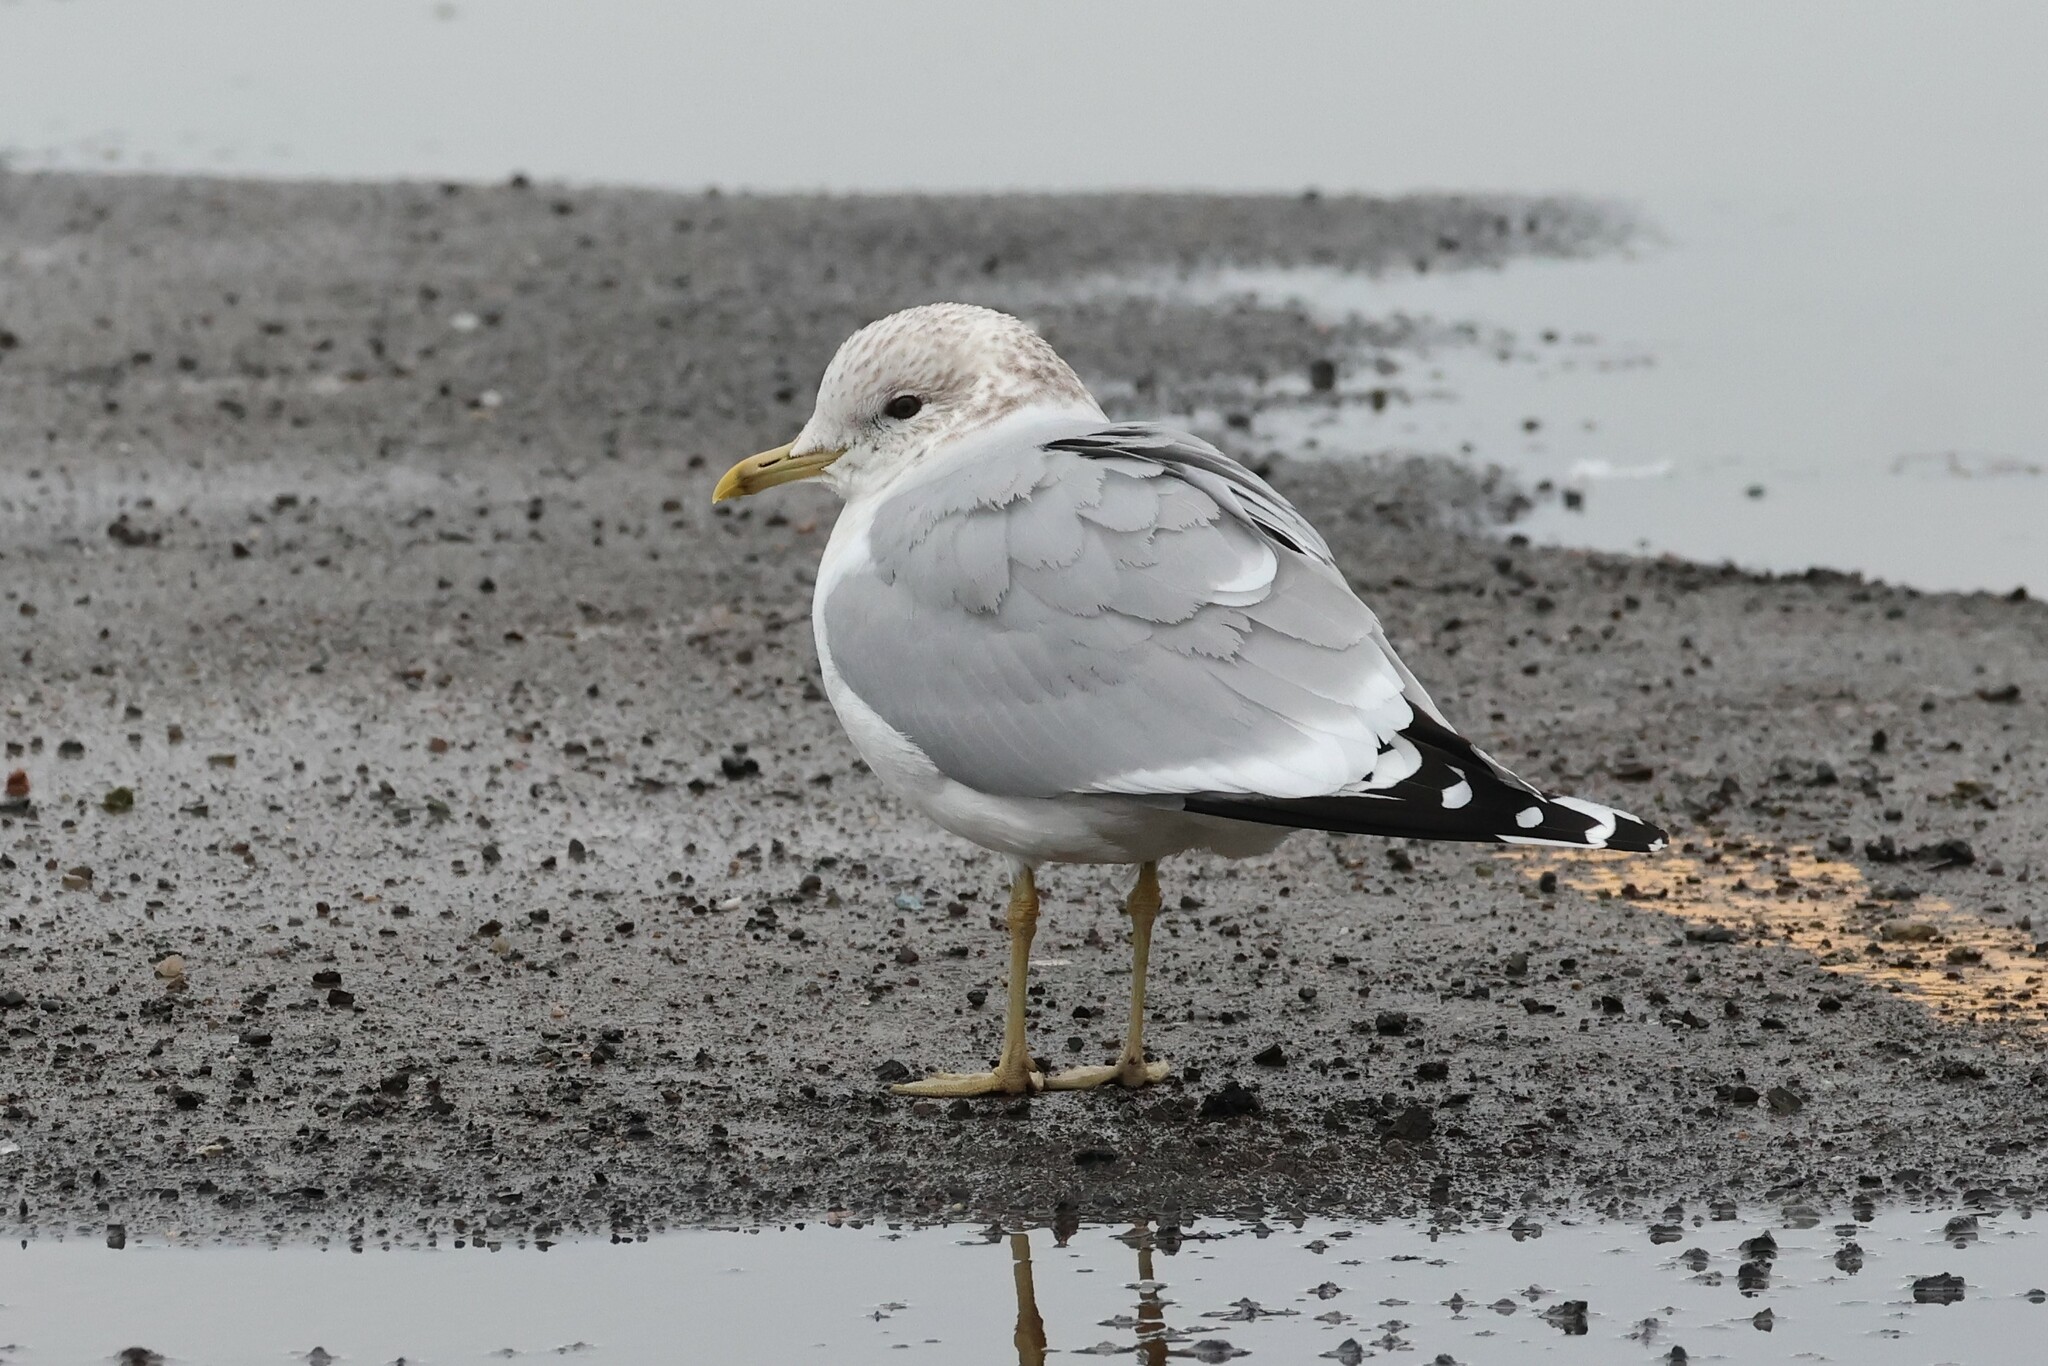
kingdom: Animalia
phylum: Chordata
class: Aves
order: Charadriiformes
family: Laridae
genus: Larus
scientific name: Larus canus
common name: Mew gull
